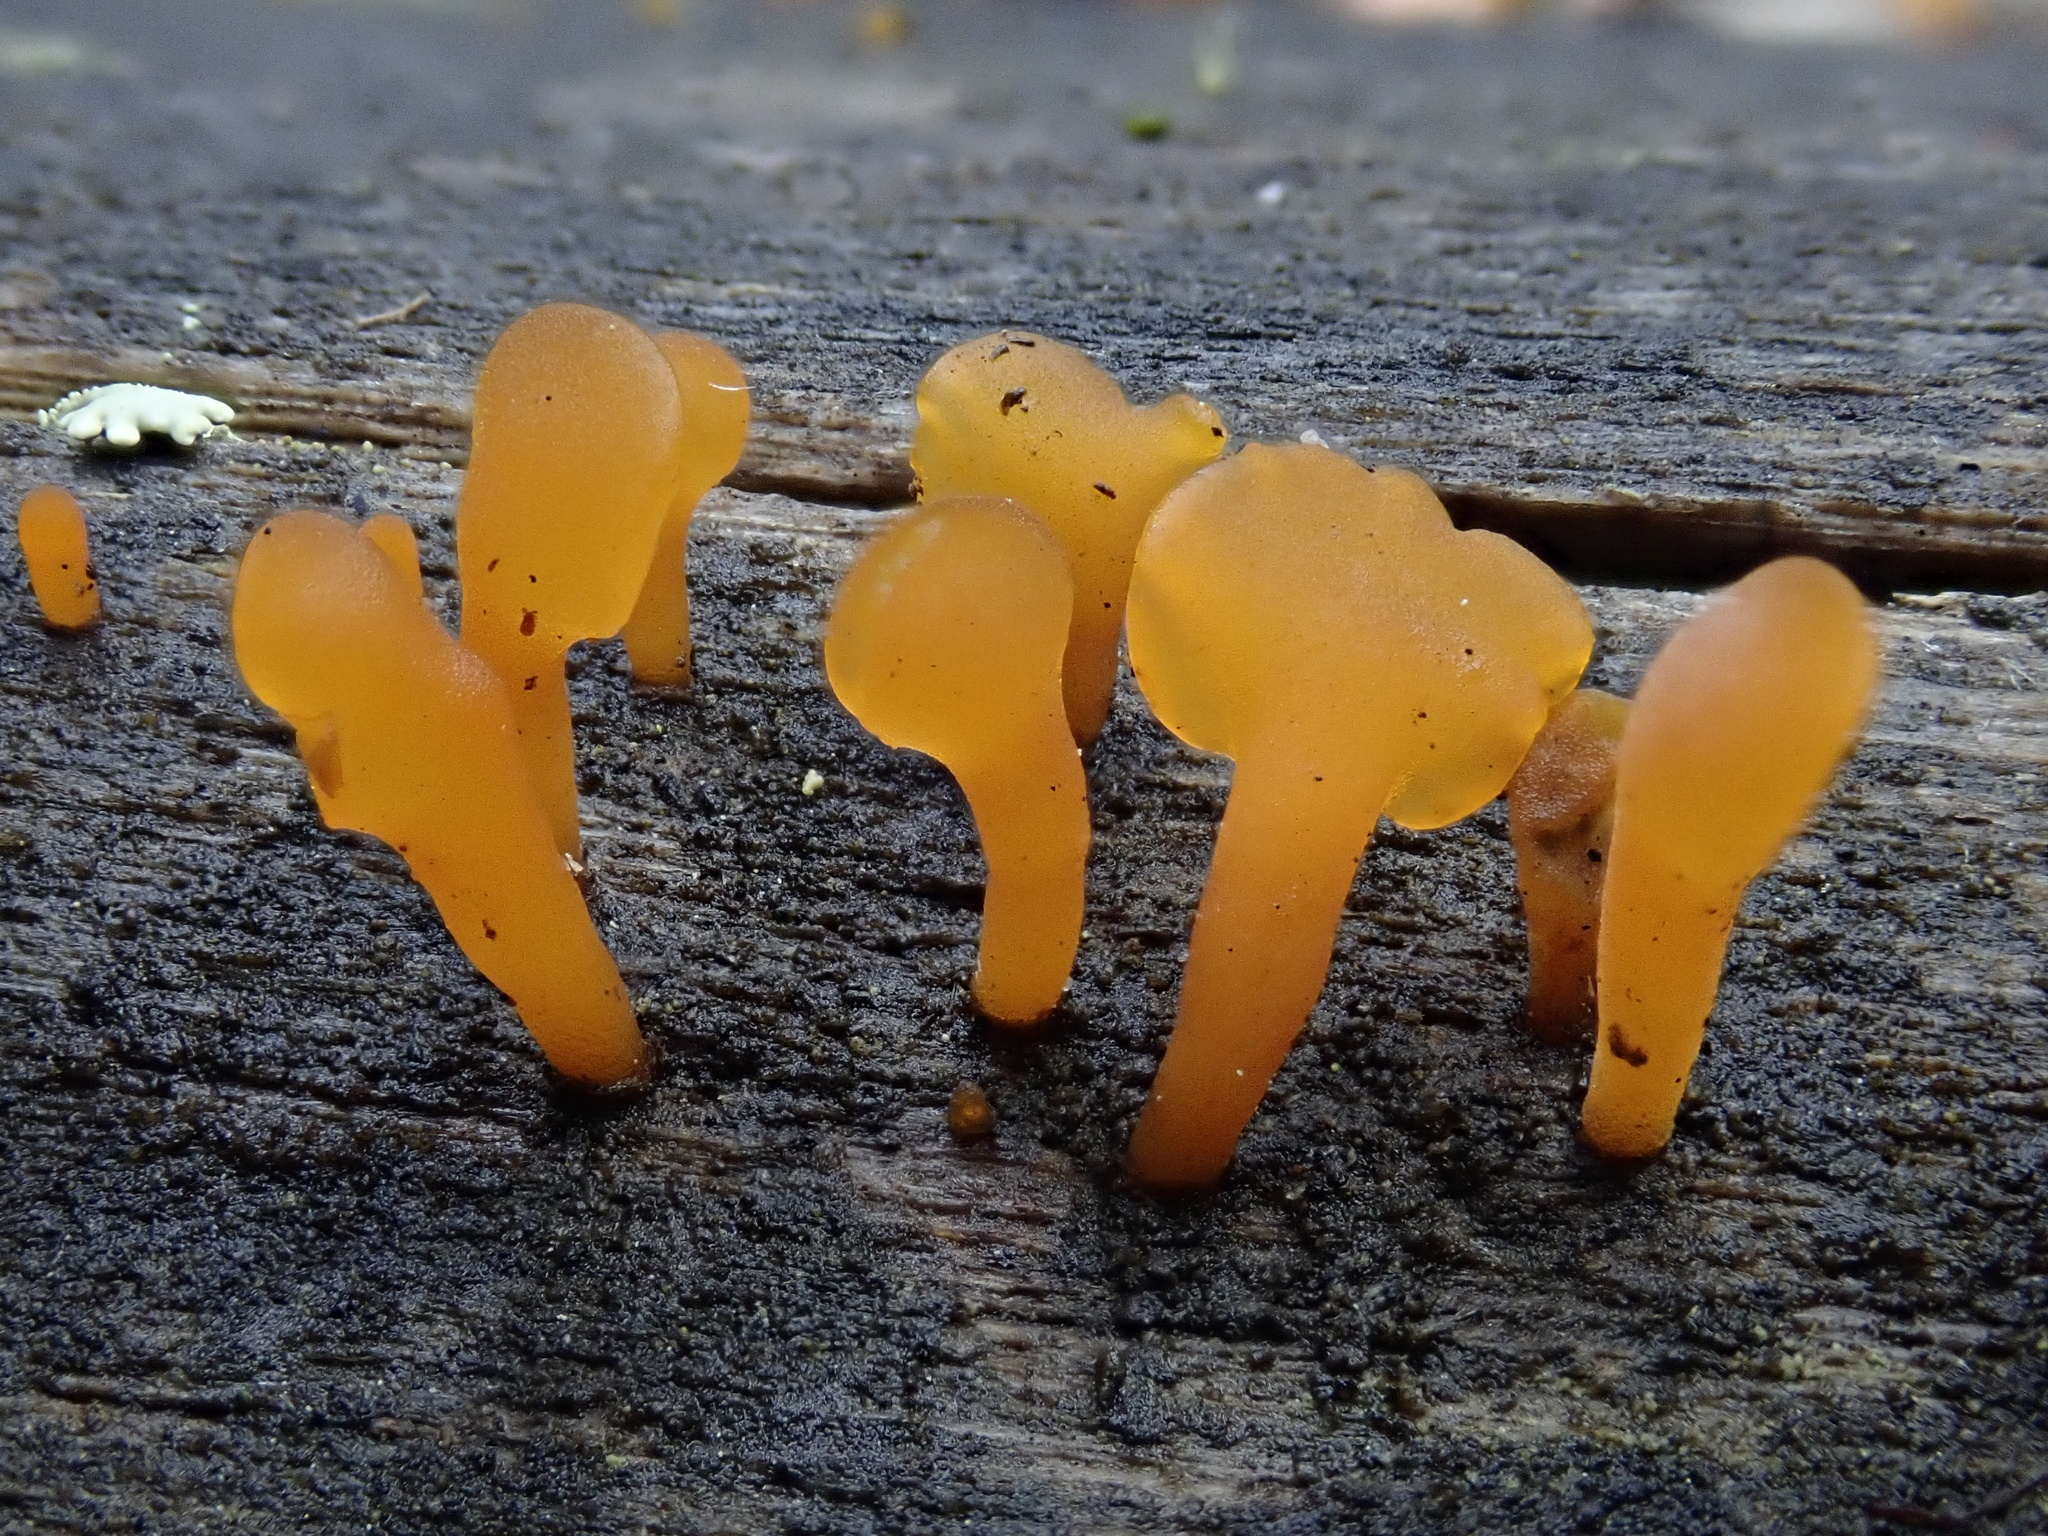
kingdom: Fungi
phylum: Basidiomycota
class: Dacrymycetes
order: Dacrymycetales
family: Dacrymycetaceae
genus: Dacrymyces
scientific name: Dacrymyces spathularius
